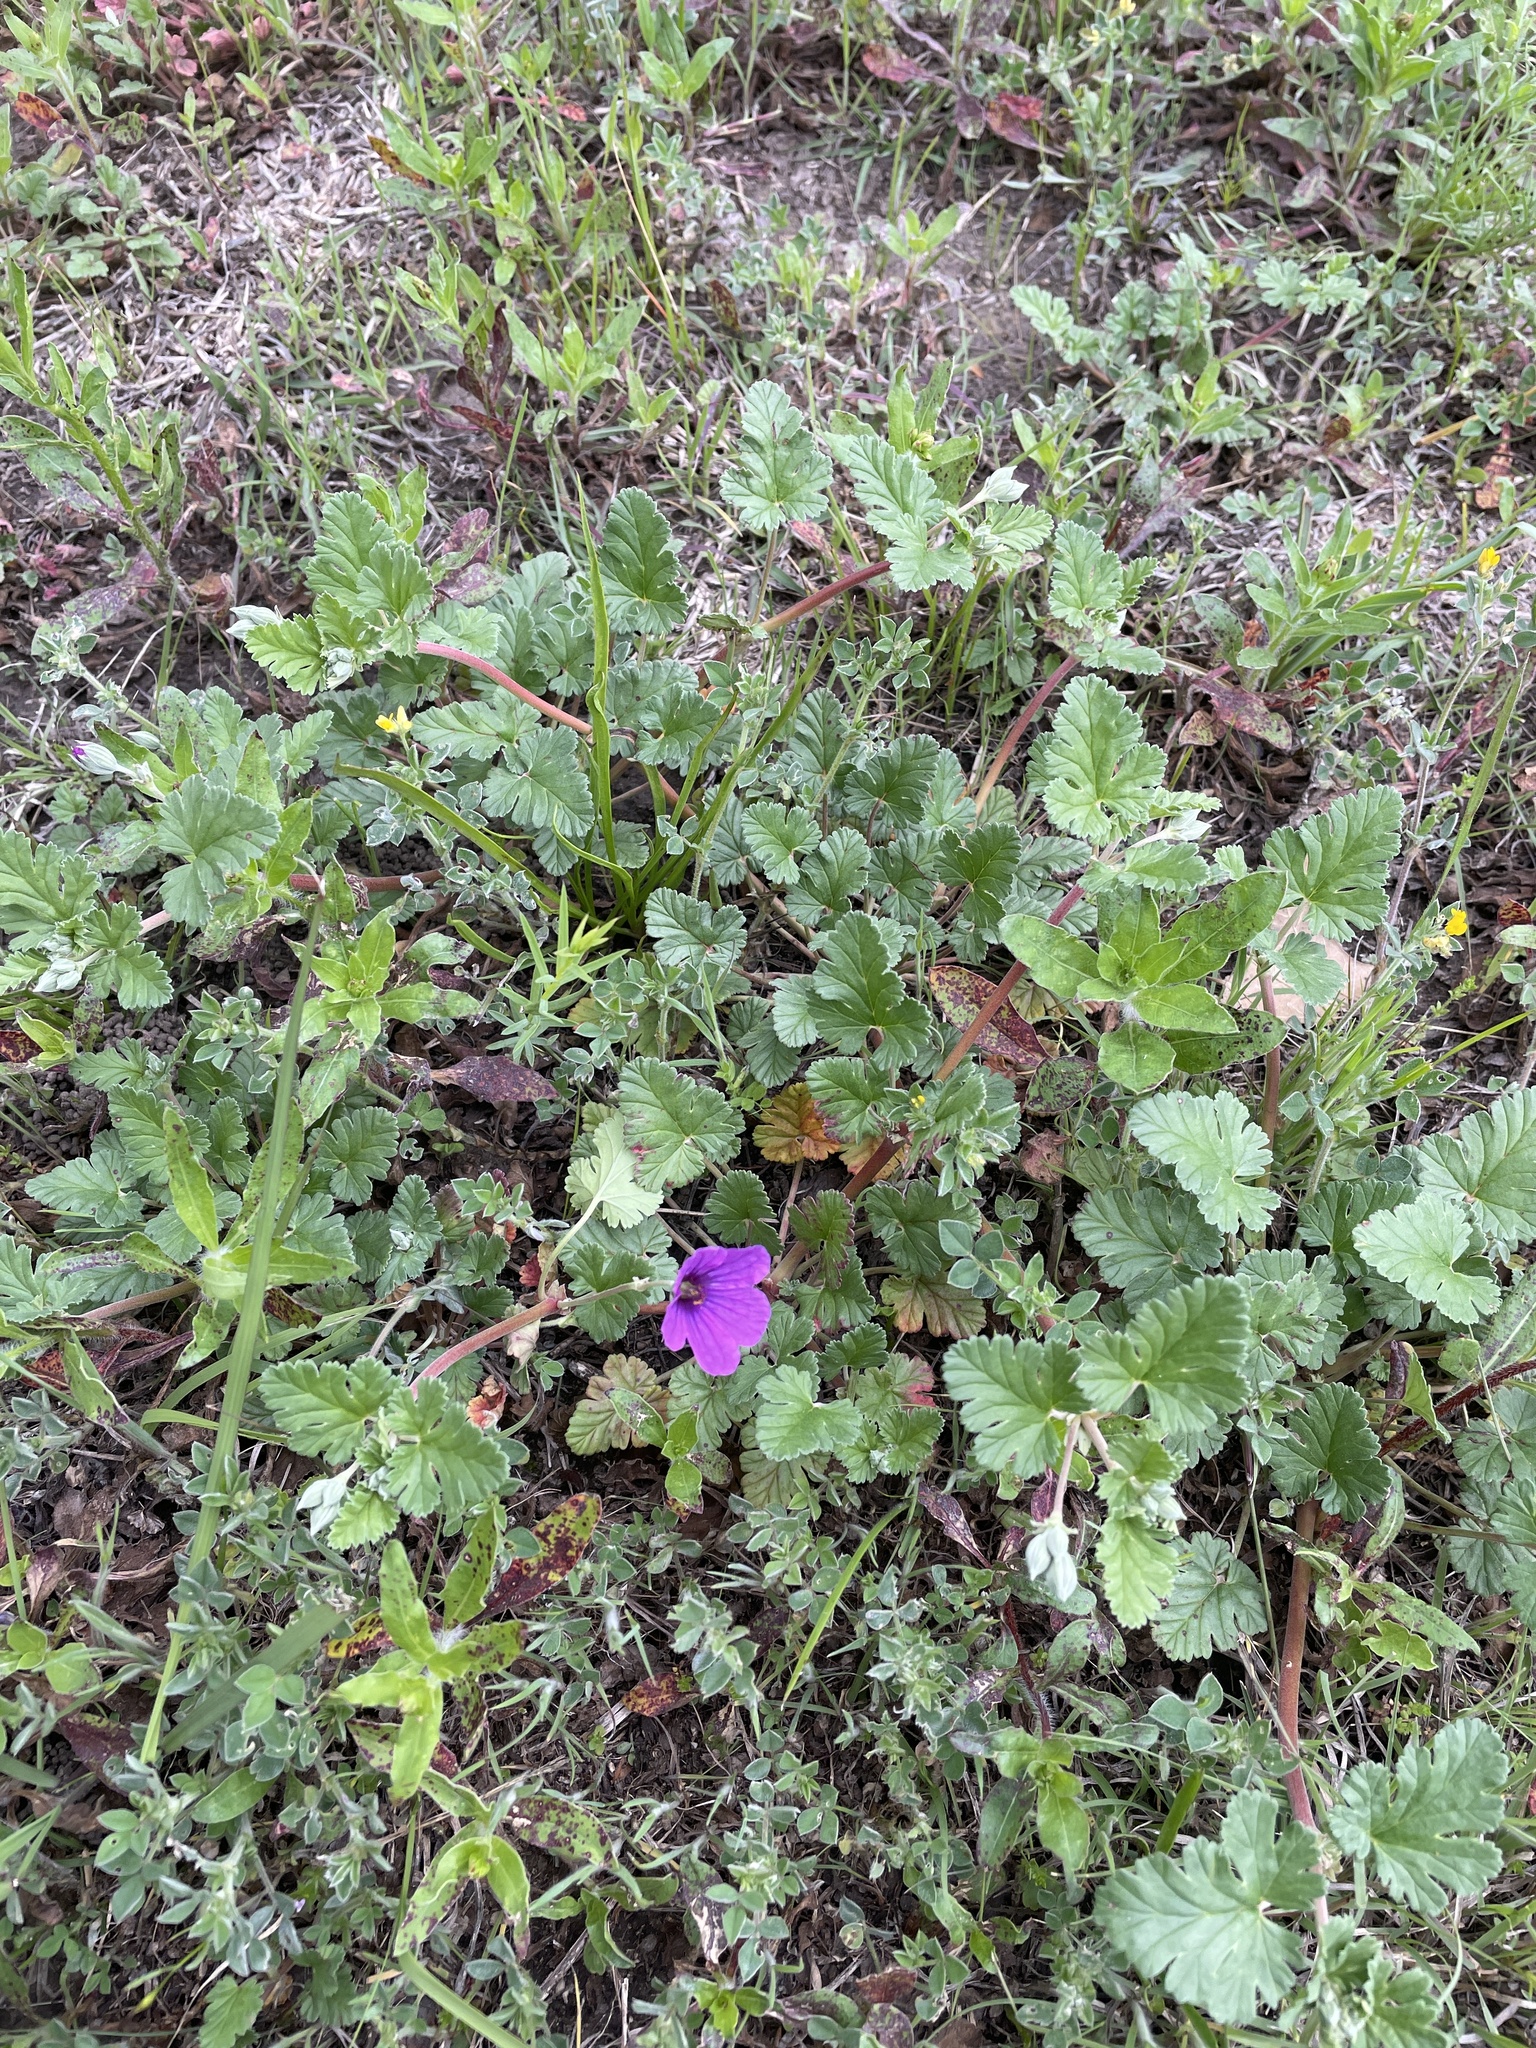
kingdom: Plantae
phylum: Tracheophyta
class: Magnoliopsida
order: Geraniales
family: Geraniaceae
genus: Erodium
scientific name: Erodium texanum
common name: Texas stork's-bill
